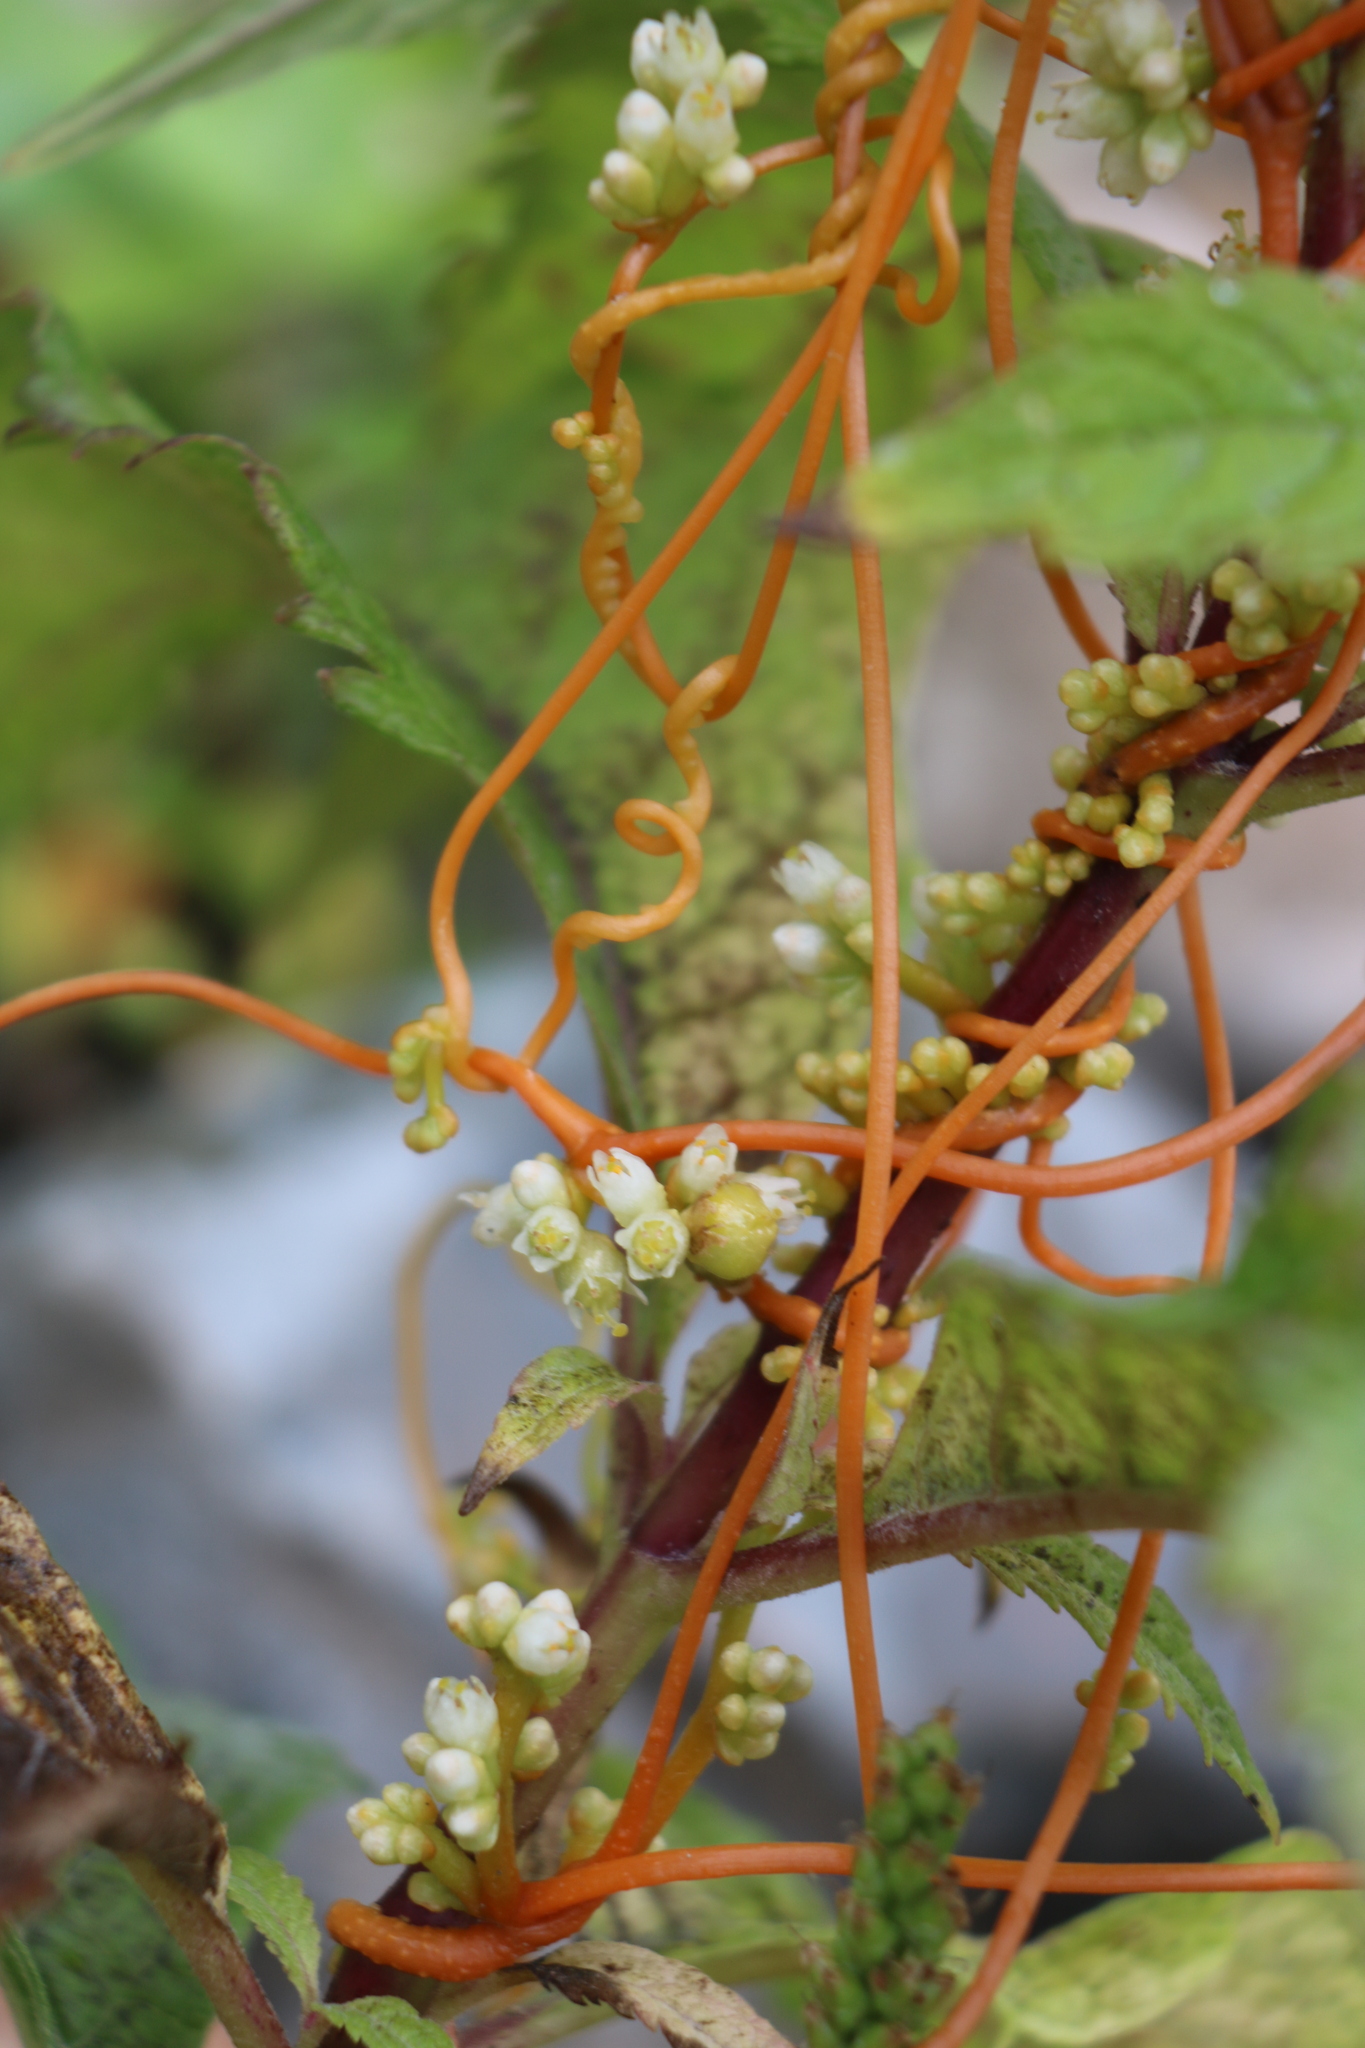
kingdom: Plantae
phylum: Tracheophyta
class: Magnoliopsida
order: Solanales
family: Convolvulaceae
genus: Cuscuta
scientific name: Cuscuta gronovii
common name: Common dodder
